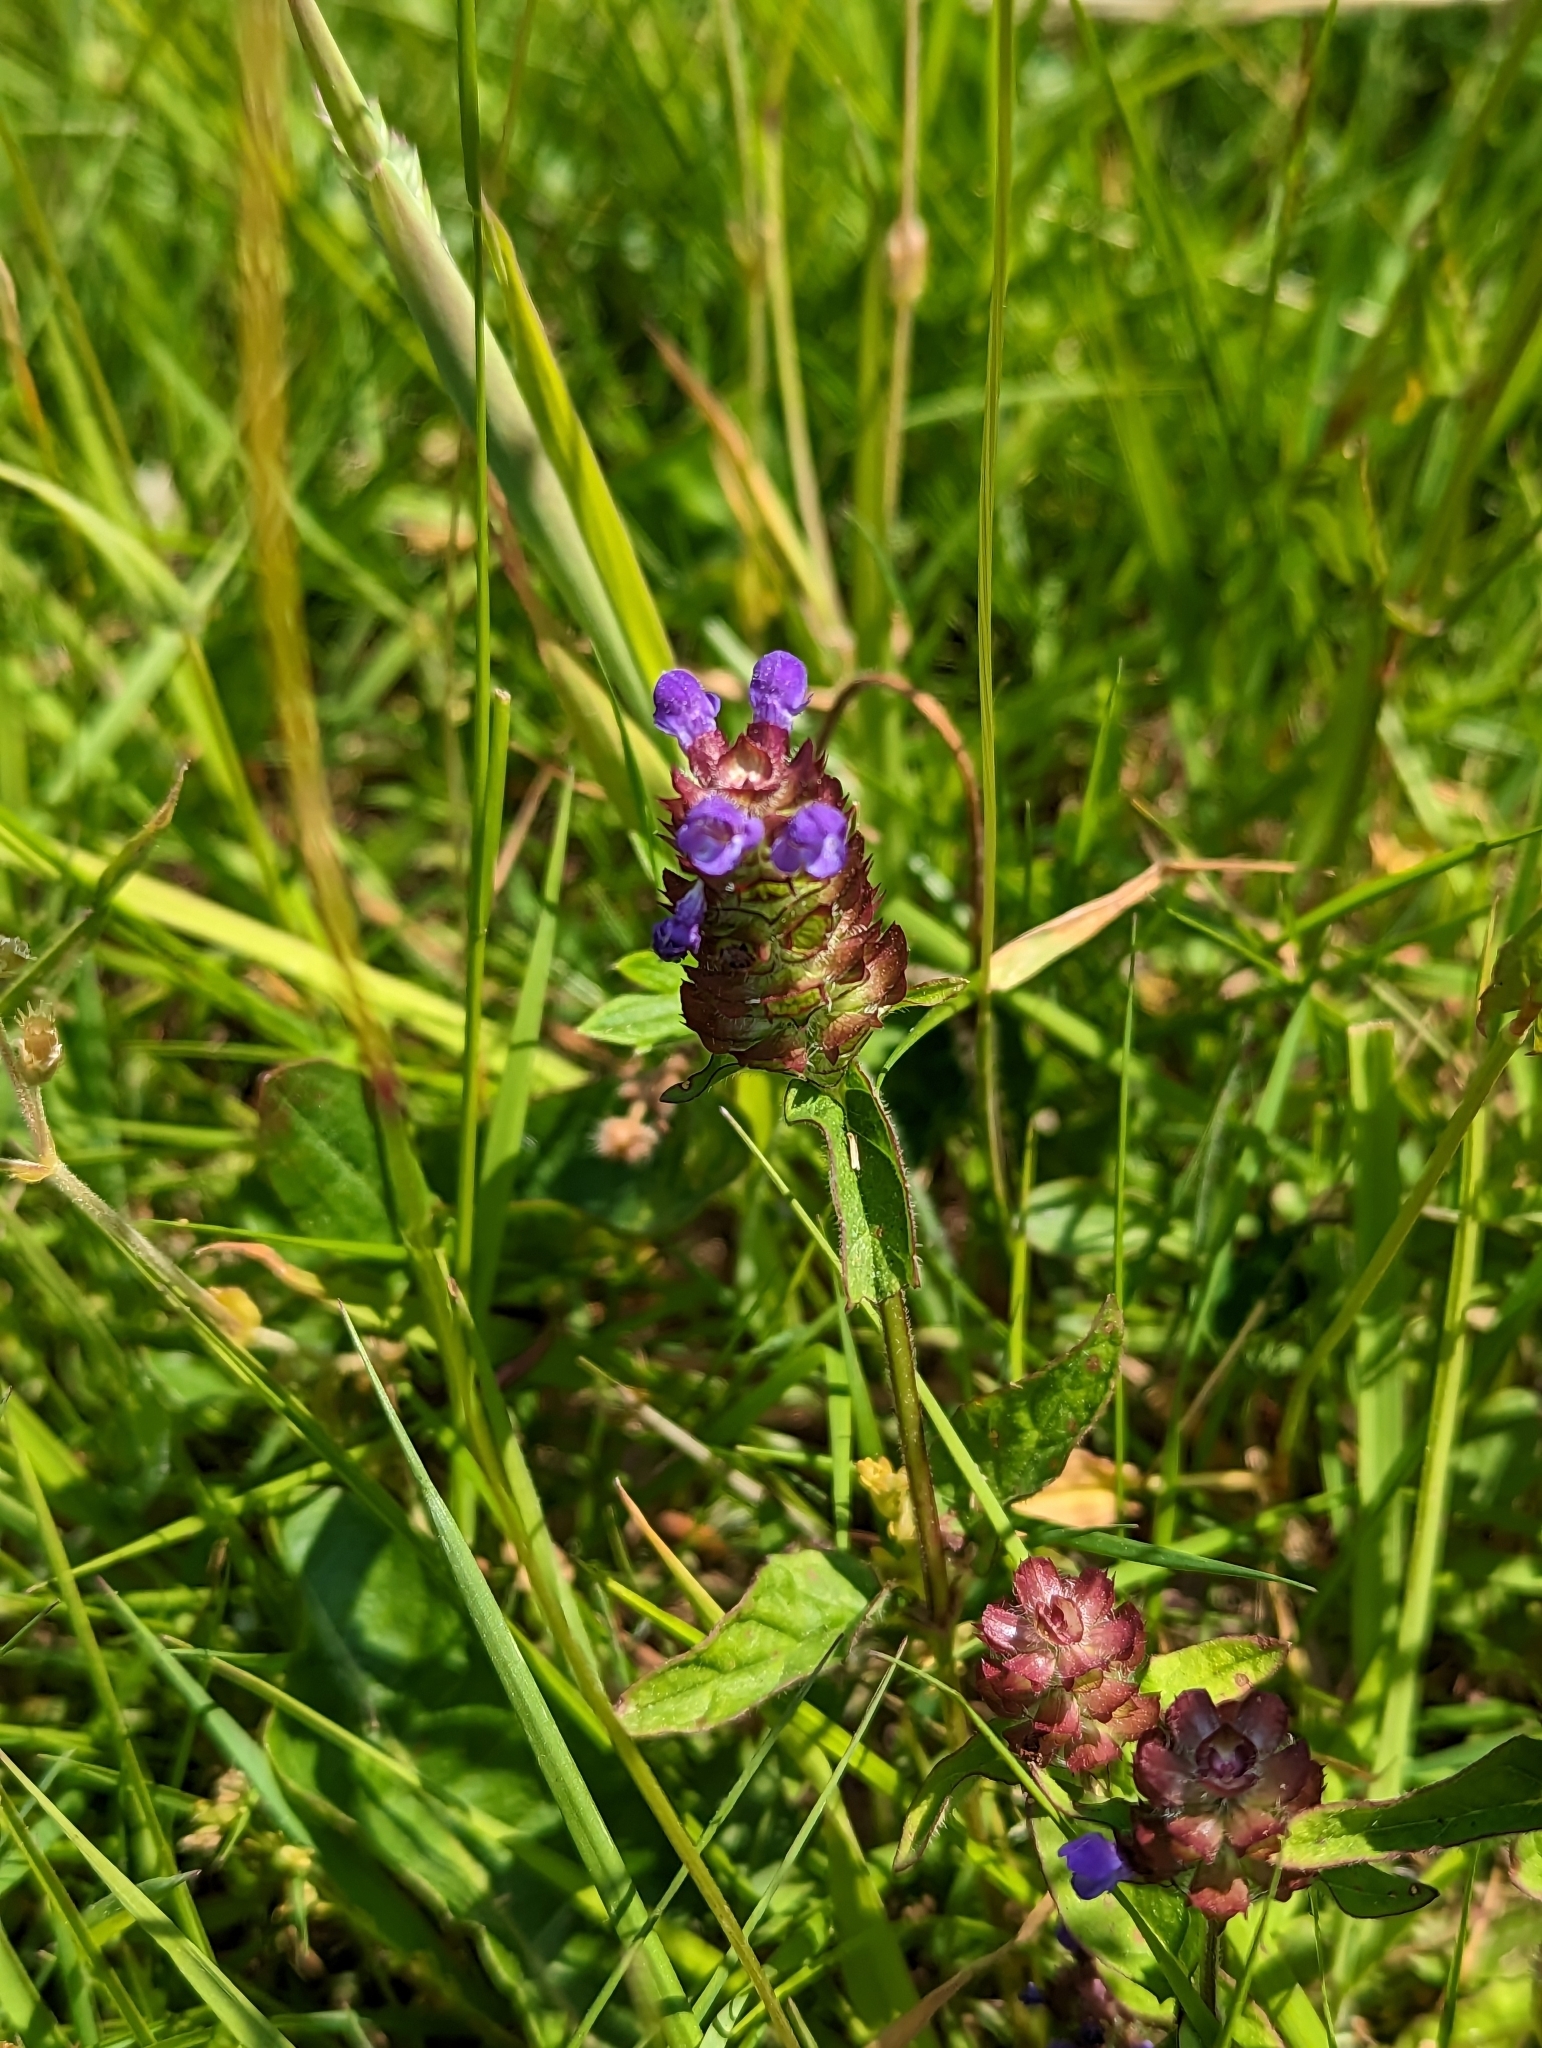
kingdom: Plantae
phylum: Tracheophyta
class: Magnoliopsida
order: Lamiales
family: Lamiaceae
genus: Prunella
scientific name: Prunella vulgaris
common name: Heal-all
